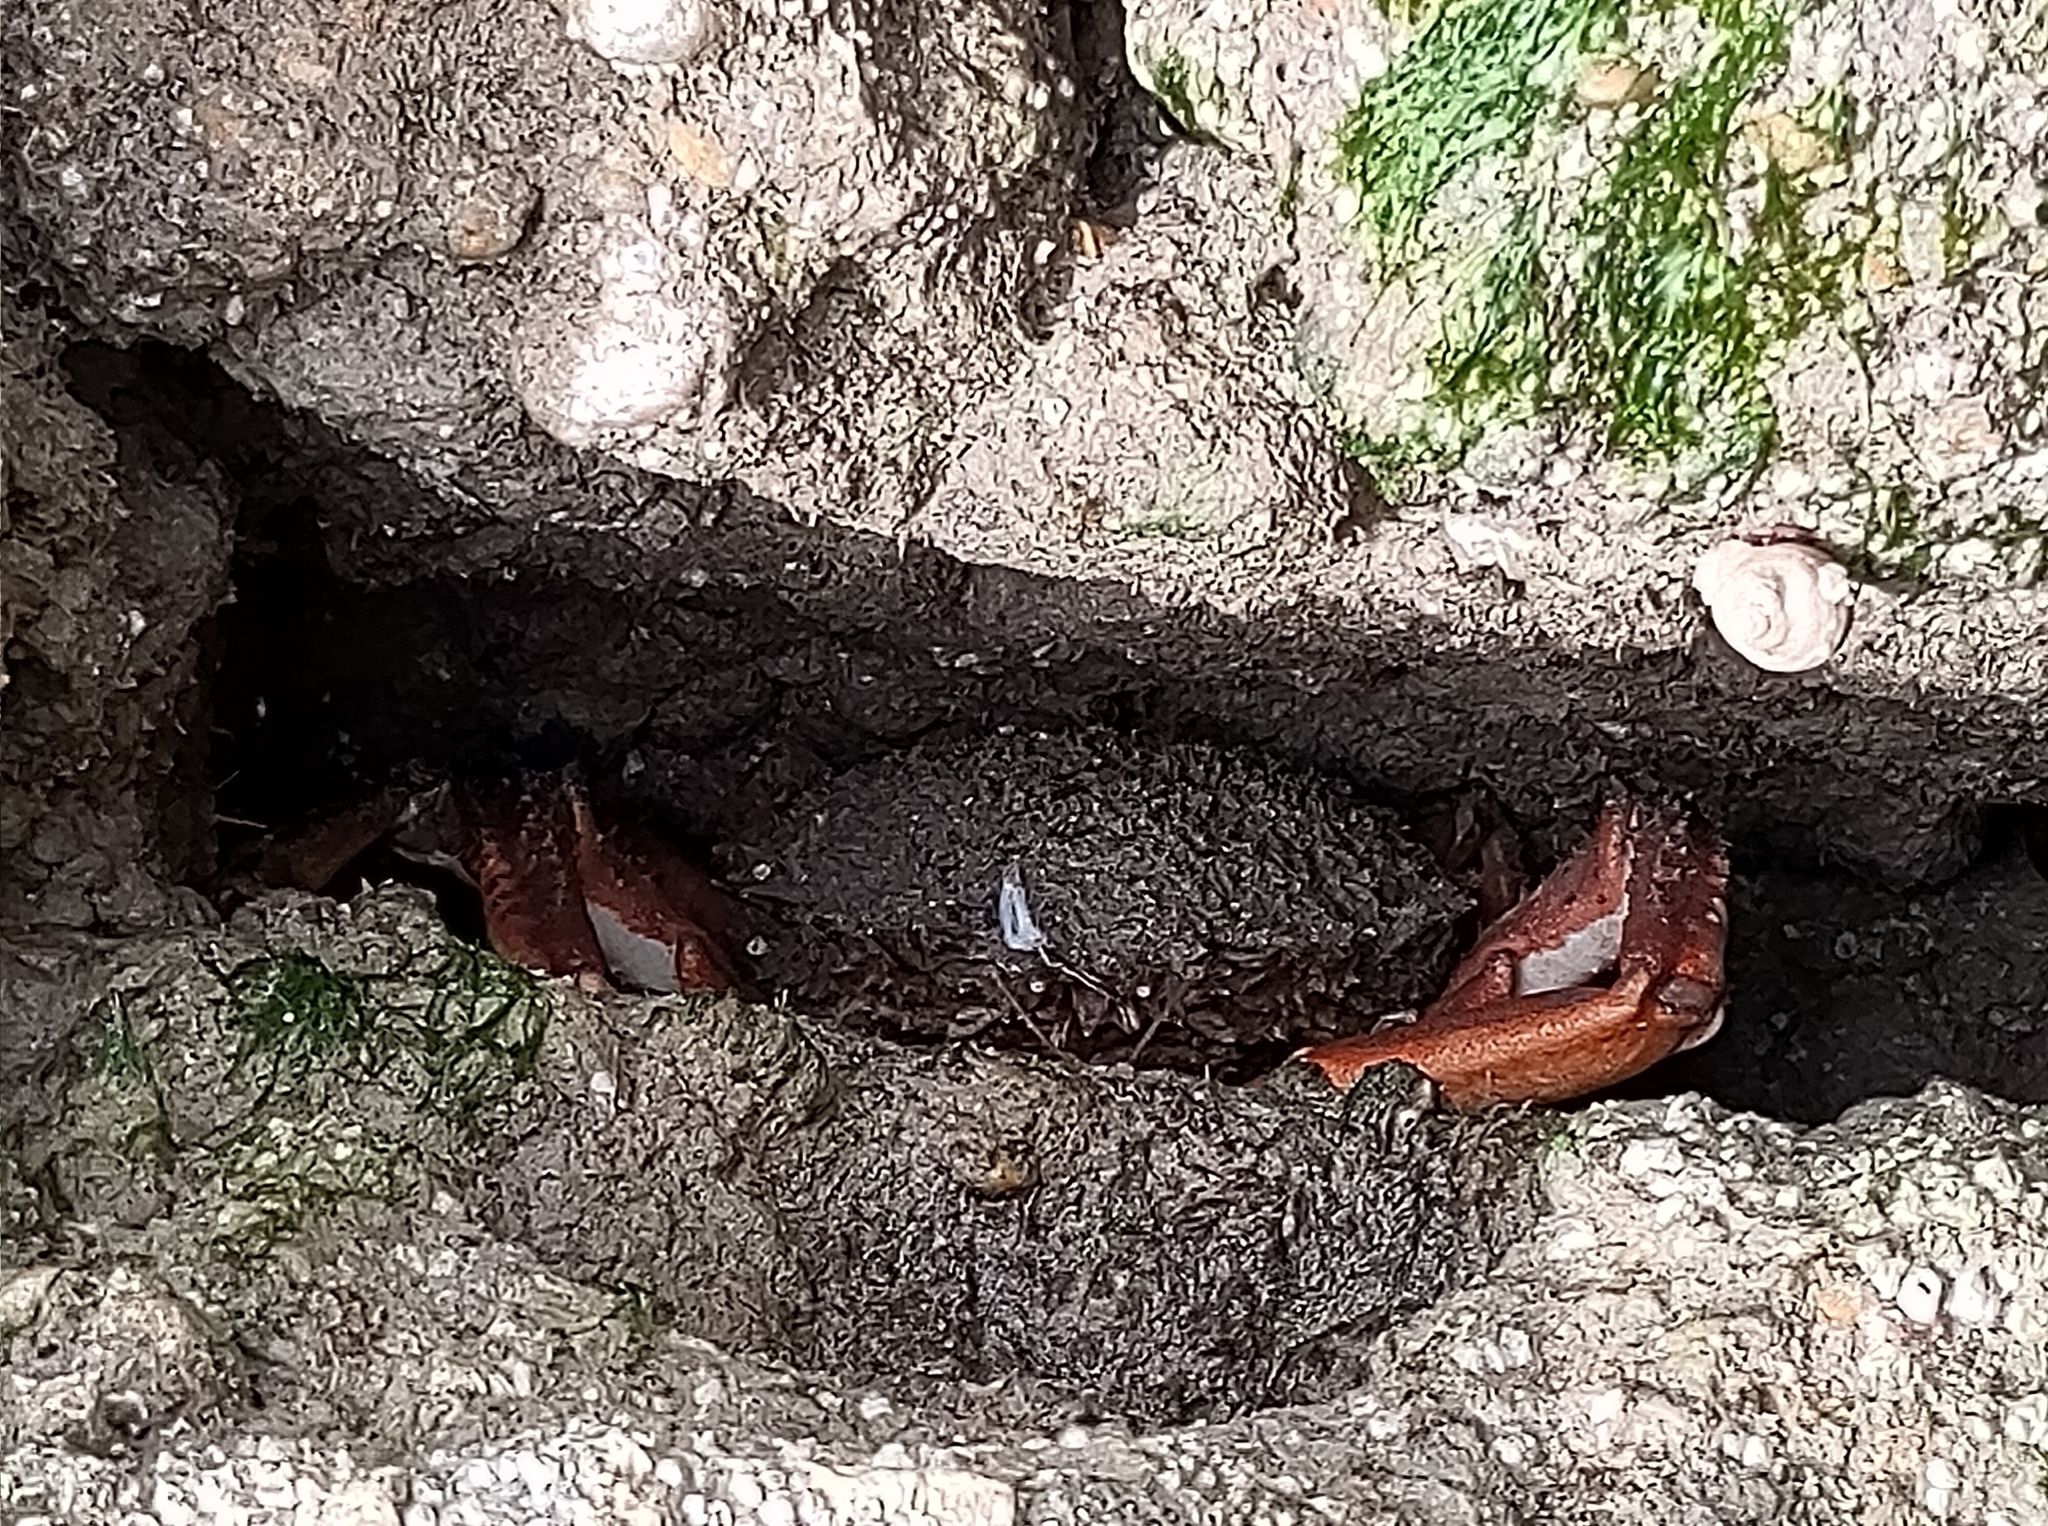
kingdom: Animalia
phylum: Arthropoda
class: Malacostraca
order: Decapoda
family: Majidae
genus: Maja
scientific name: Maja brachydactyla
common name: Common spider crab
